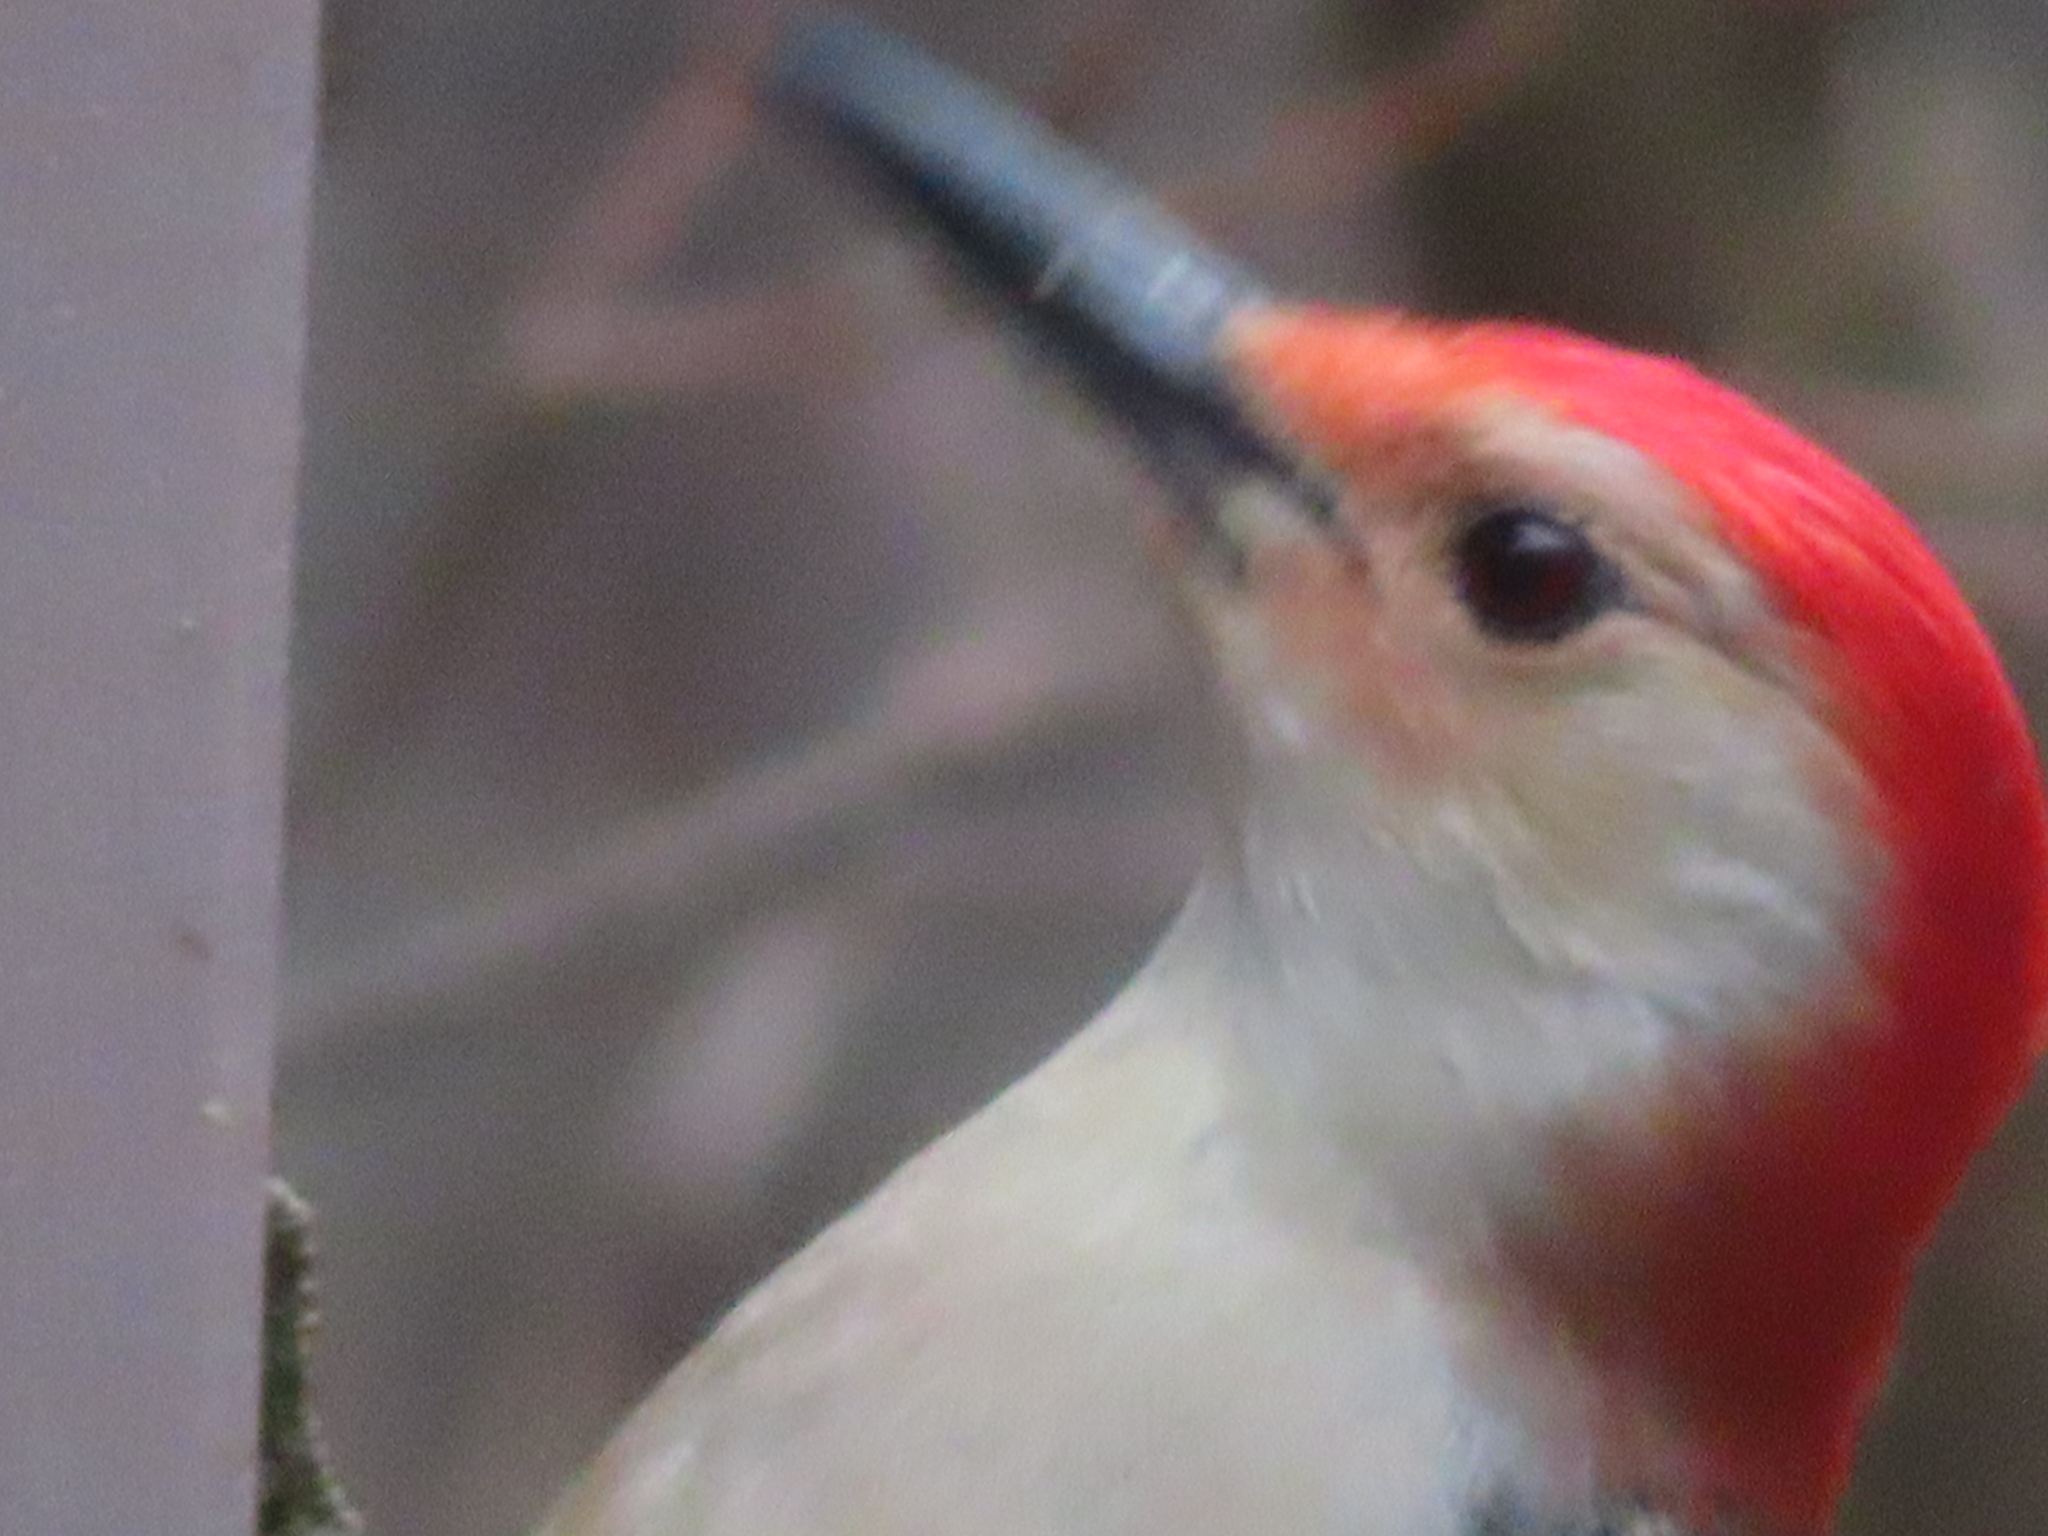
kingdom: Animalia
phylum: Chordata
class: Aves
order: Piciformes
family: Picidae
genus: Melanerpes
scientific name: Melanerpes carolinus
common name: Red-bellied woodpecker
